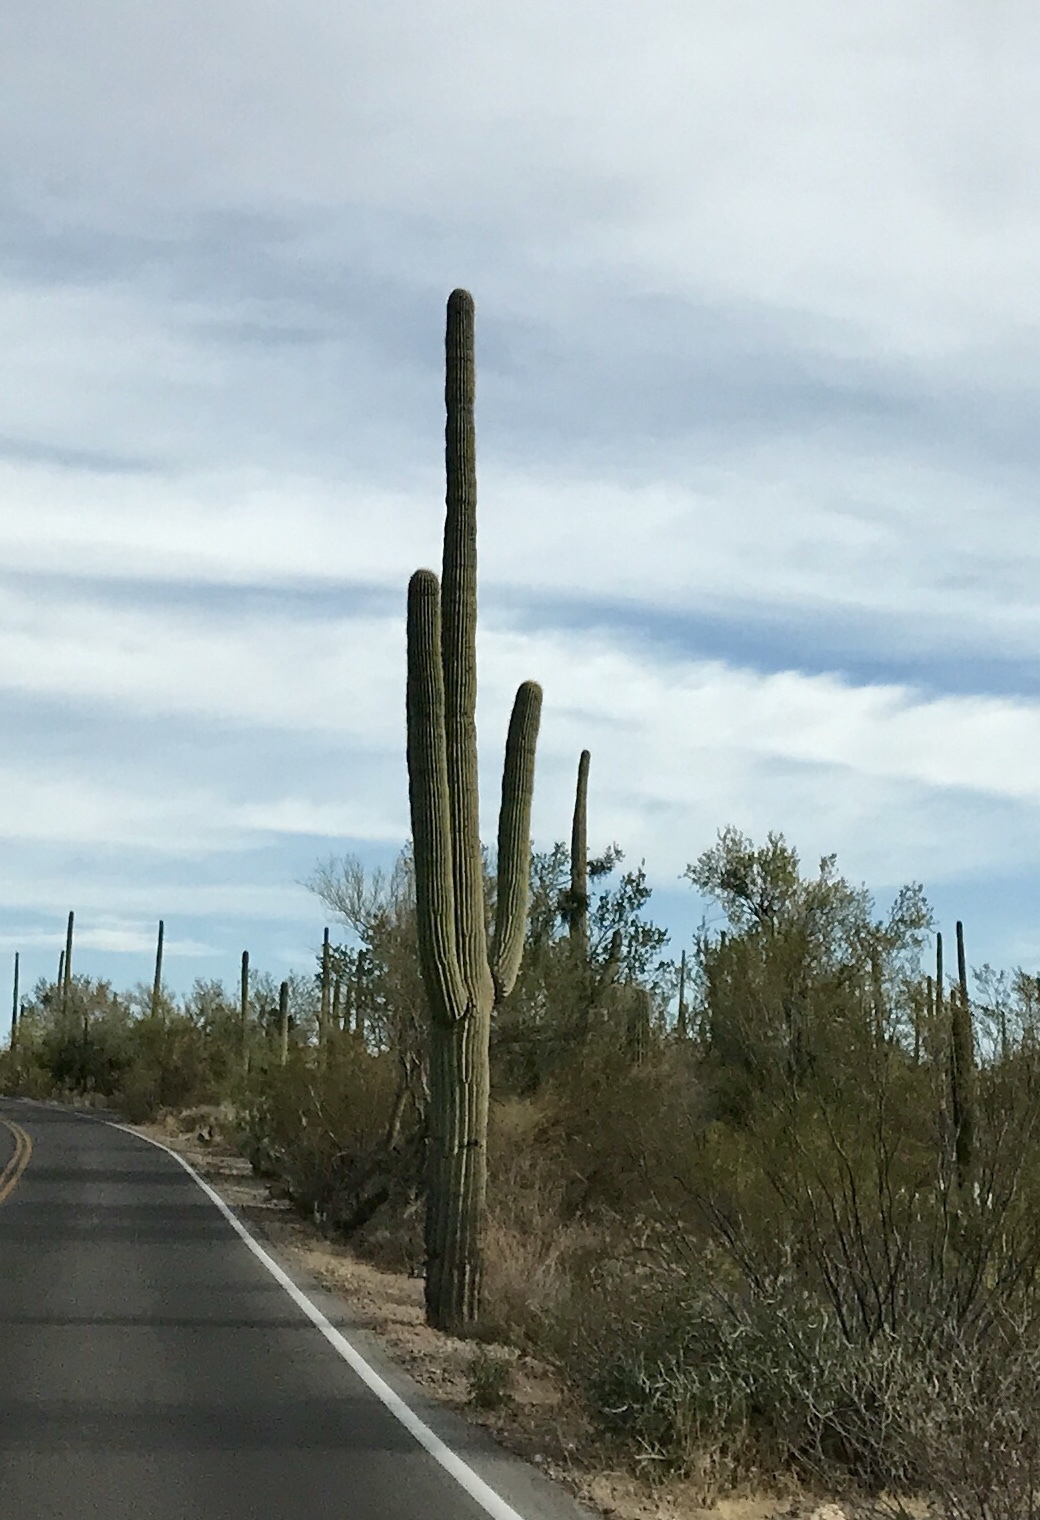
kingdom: Plantae
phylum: Tracheophyta
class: Magnoliopsida
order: Caryophyllales
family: Cactaceae
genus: Carnegiea
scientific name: Carnegiea gigantea
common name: Saguaro
